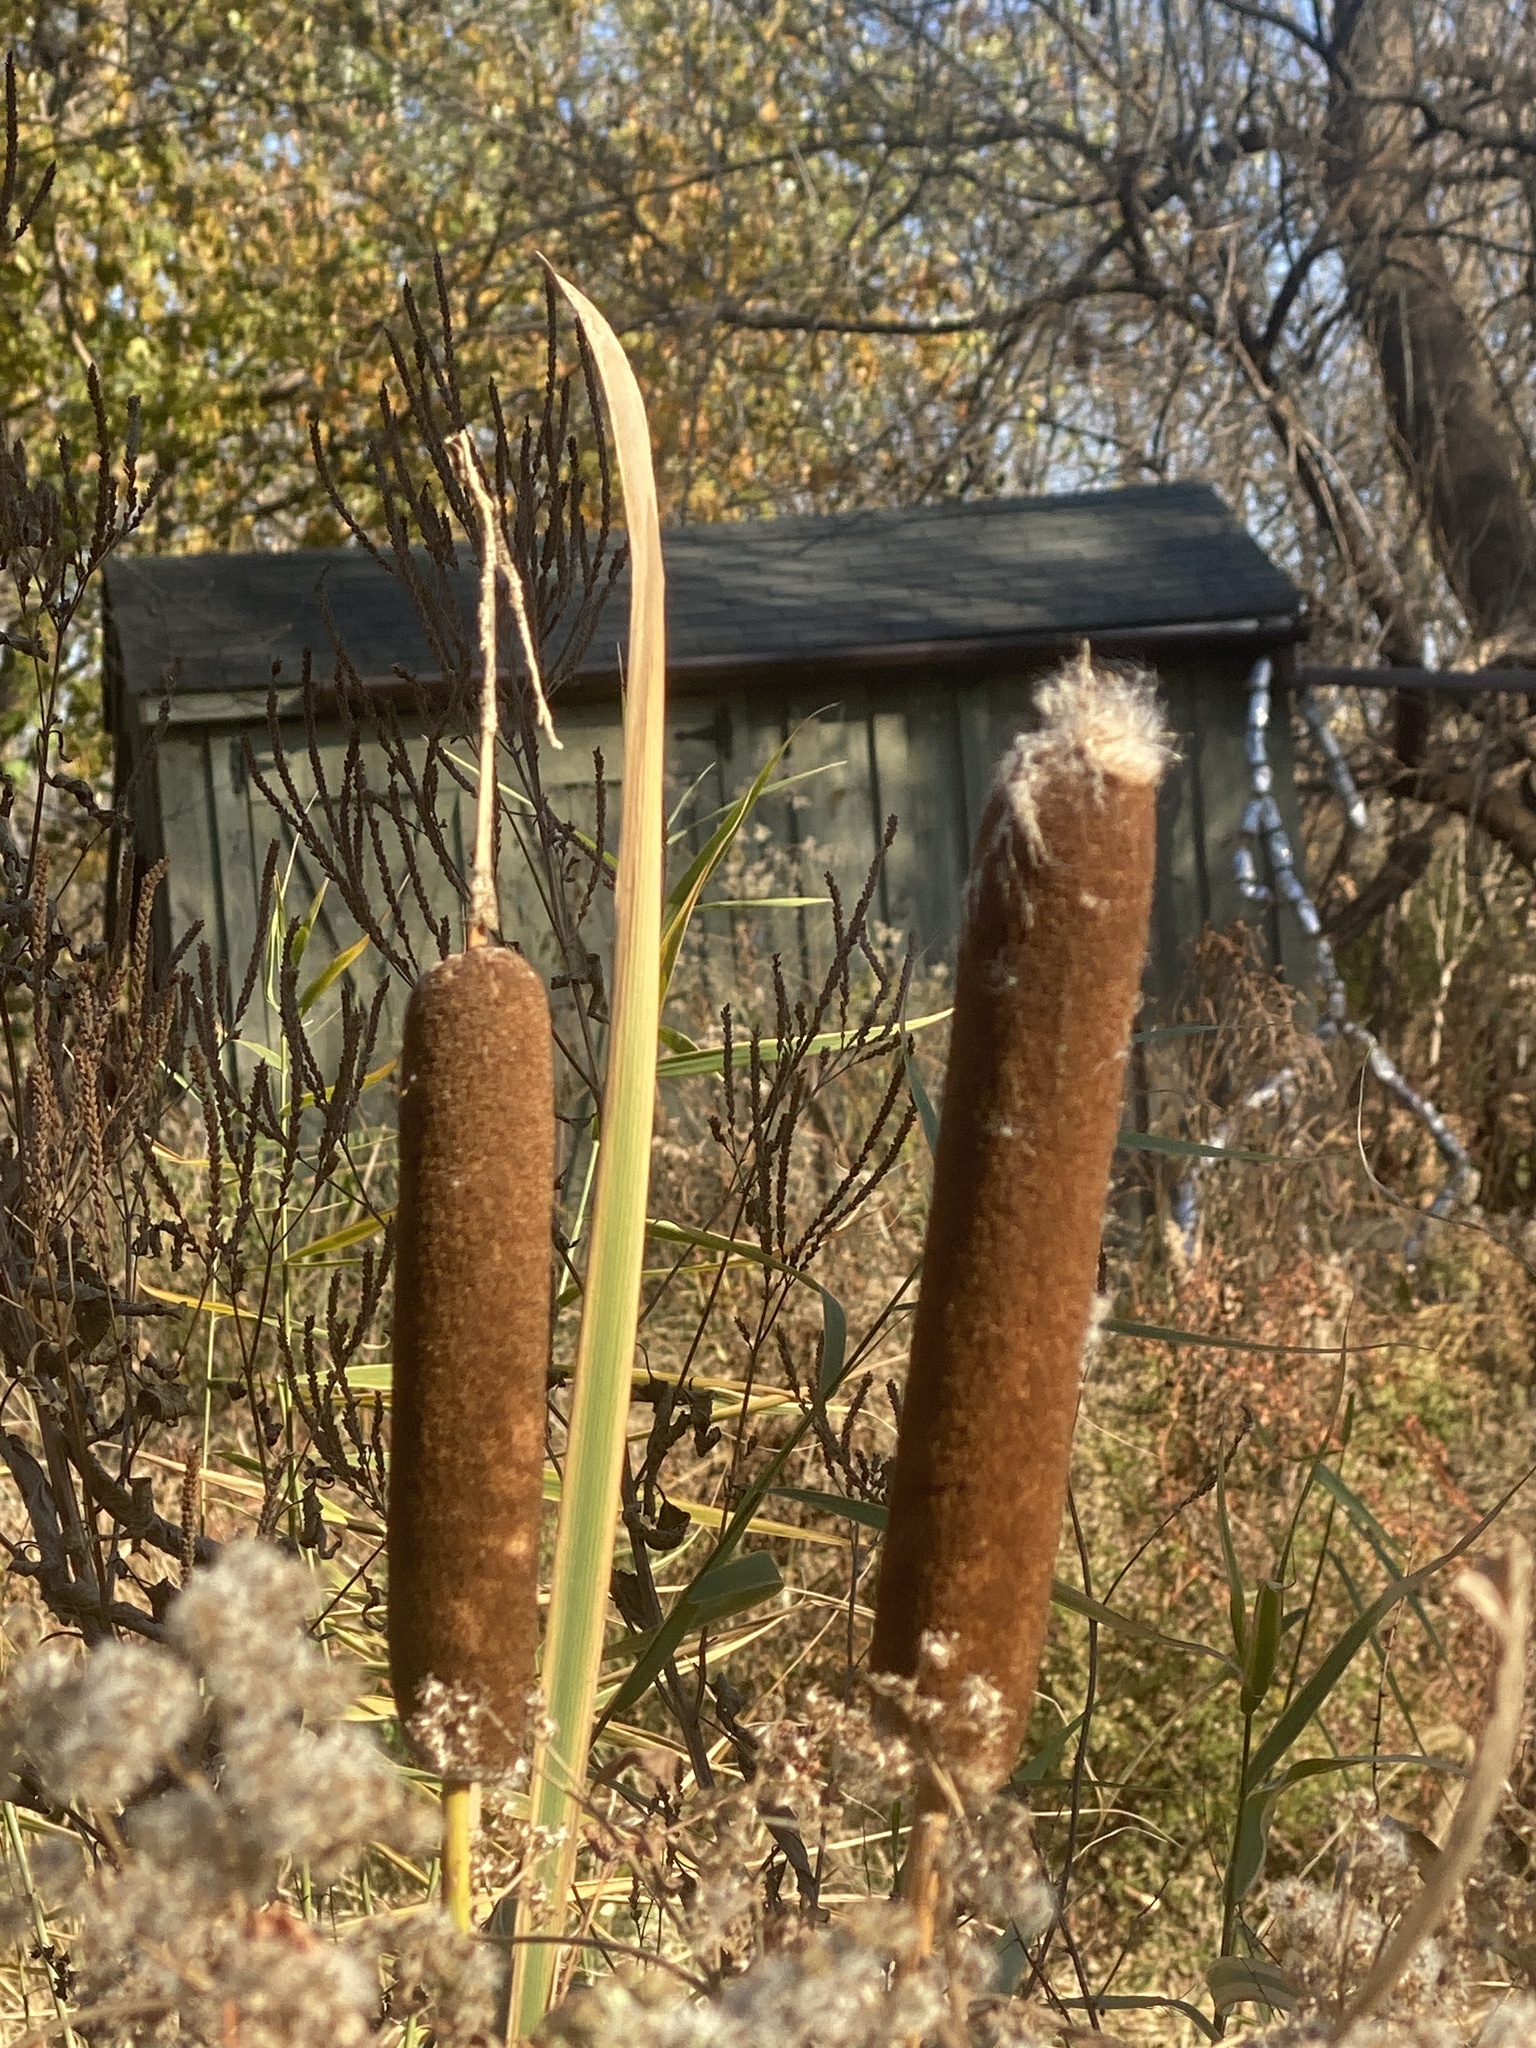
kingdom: Plantae
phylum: Tracheophyta
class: Liliopsida
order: Poales
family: Typhaceae
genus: Typha
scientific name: Typha
